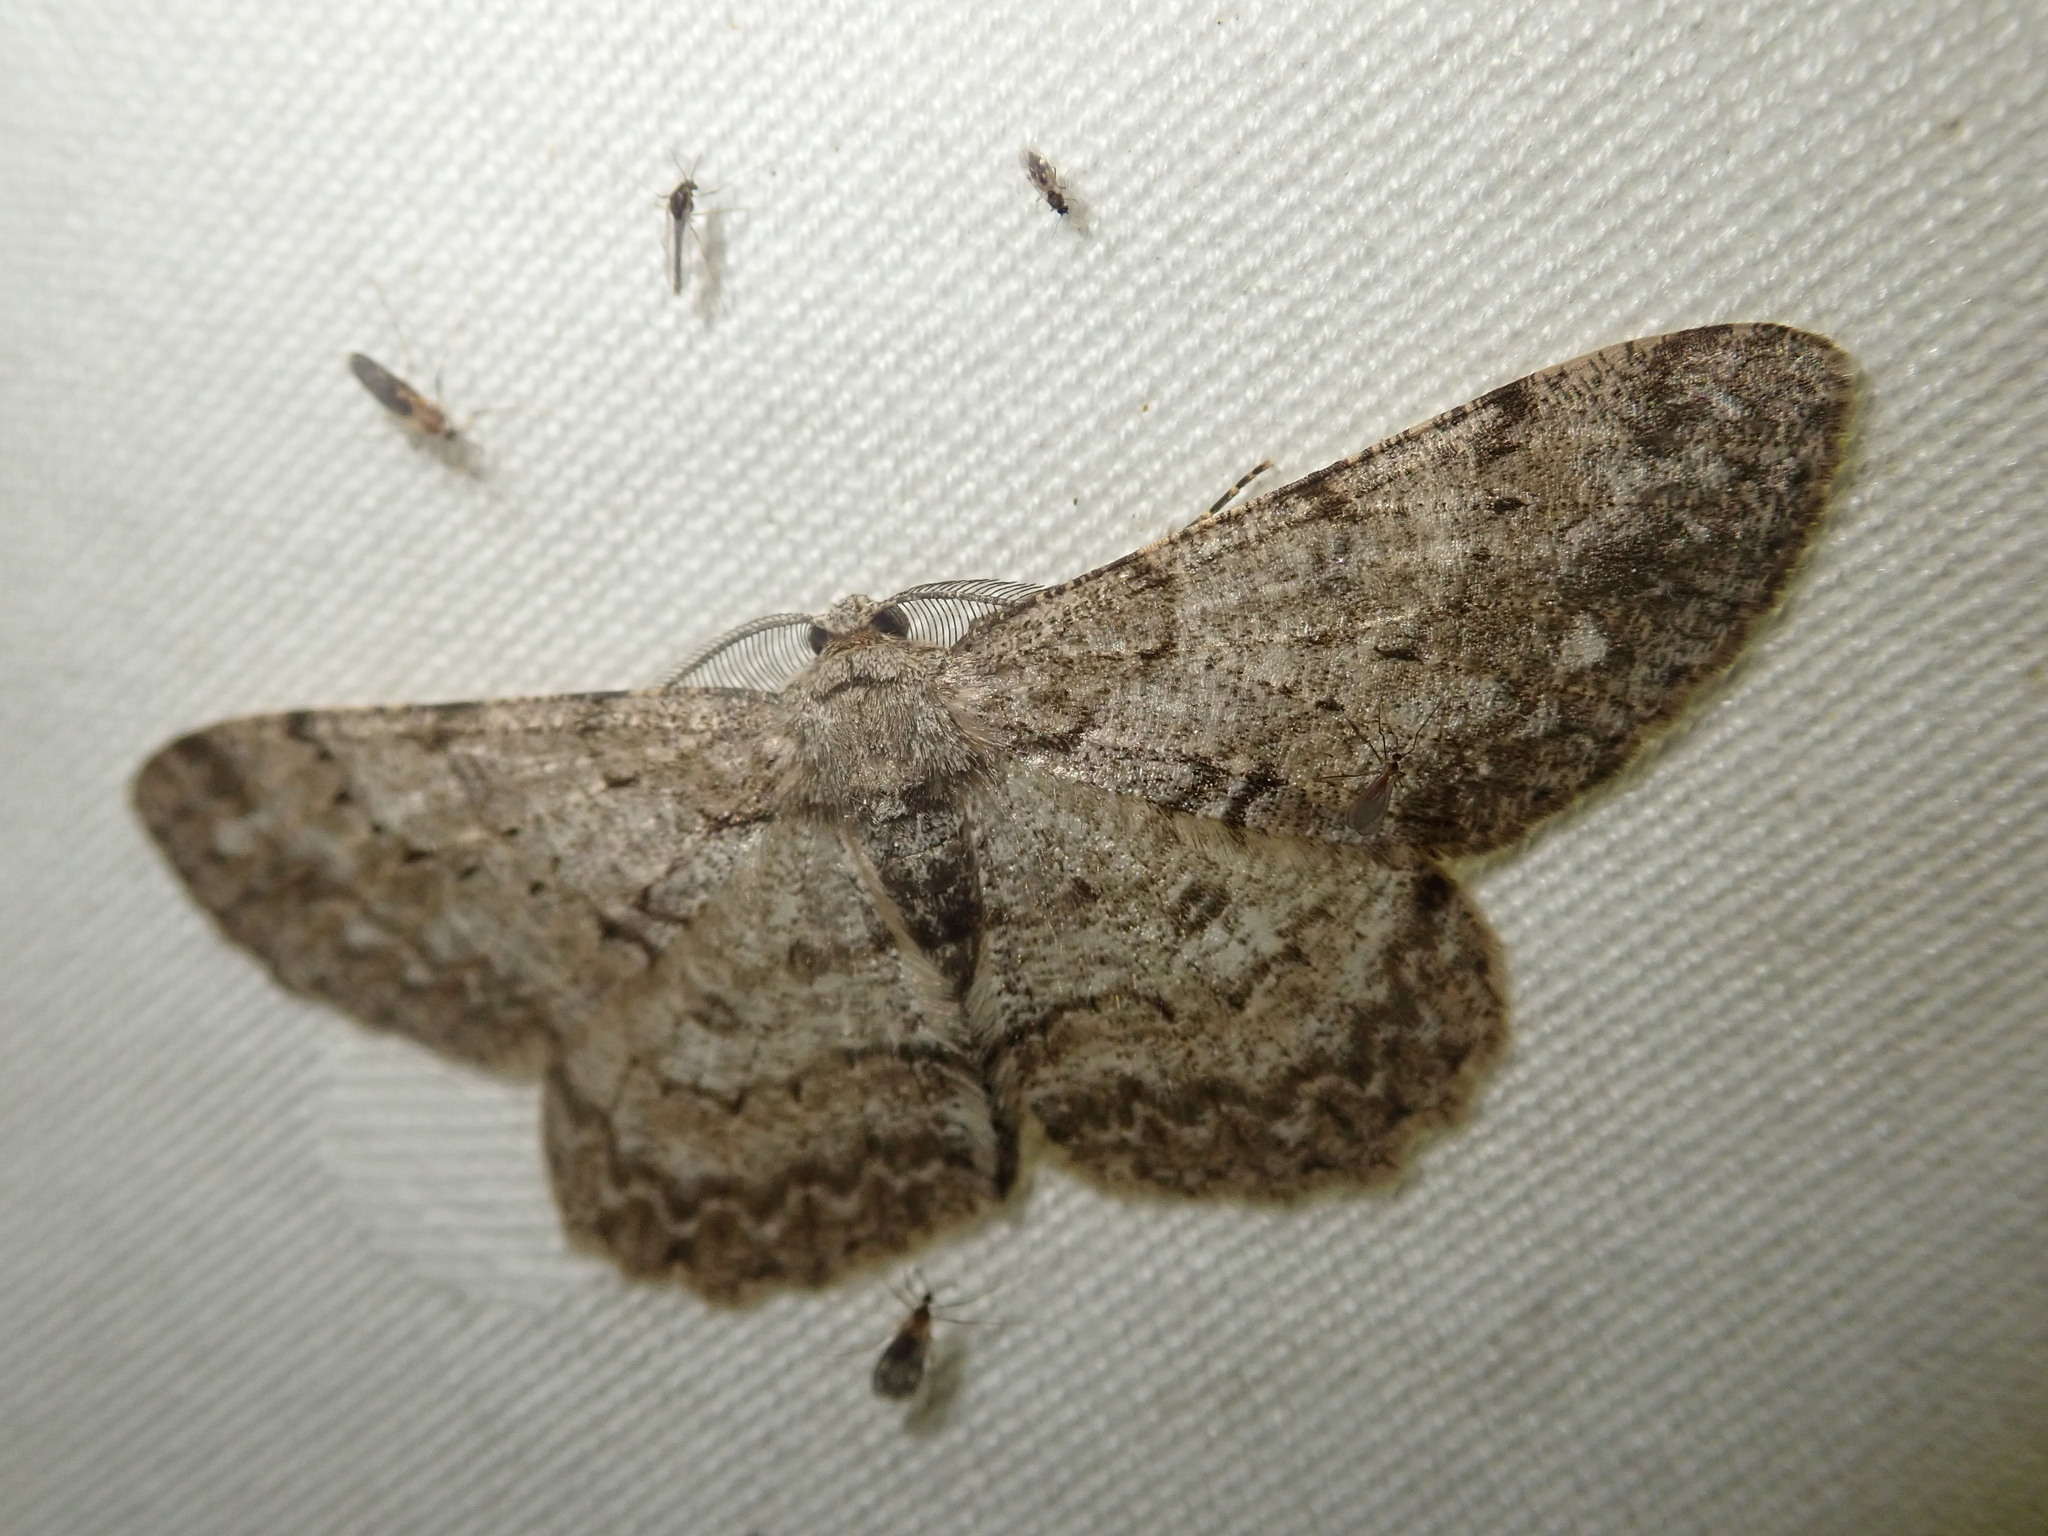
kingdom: Animalia
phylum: Arthropoda
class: Insecta
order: Lepidoptera
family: Geometridae
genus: Hypomecis
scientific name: Hypomecis punctinalis
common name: Pale oak beauty
